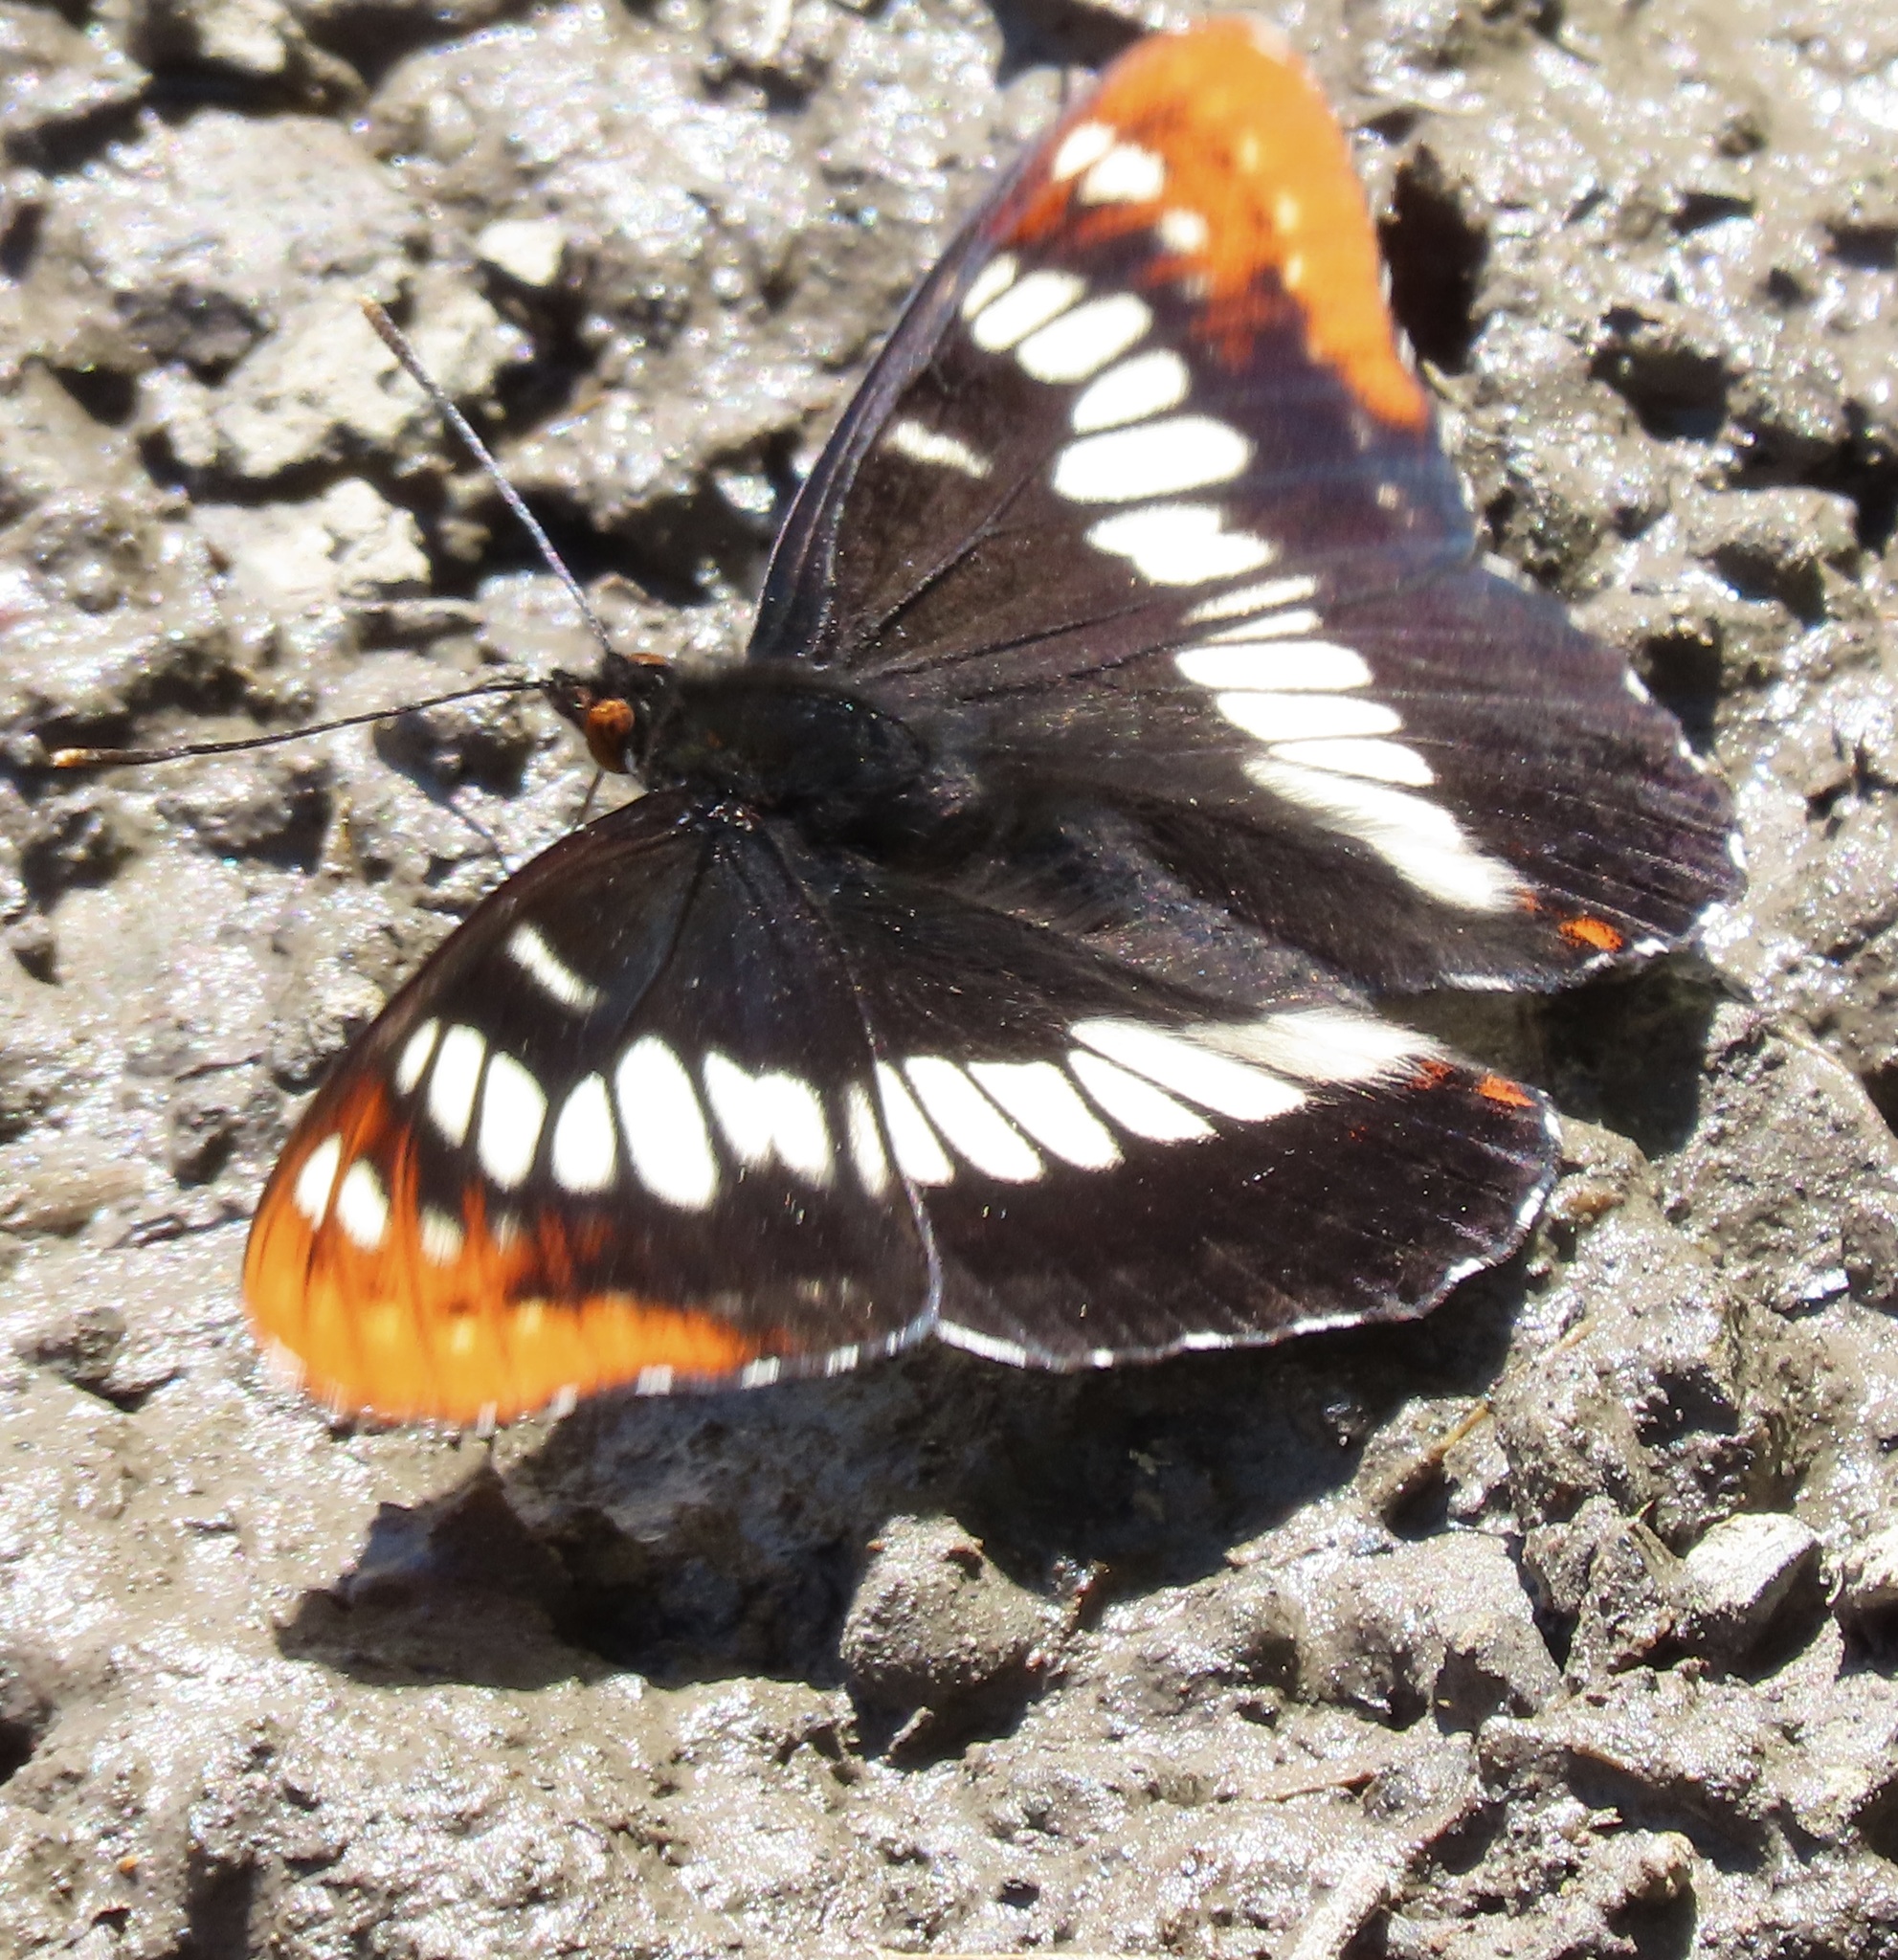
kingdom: Animalia
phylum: Arthropoda
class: Insecta
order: Lepidoptera
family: Nymphalidae
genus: Limenitis
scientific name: Limenitis lorquini
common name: Lorquin's admiral
